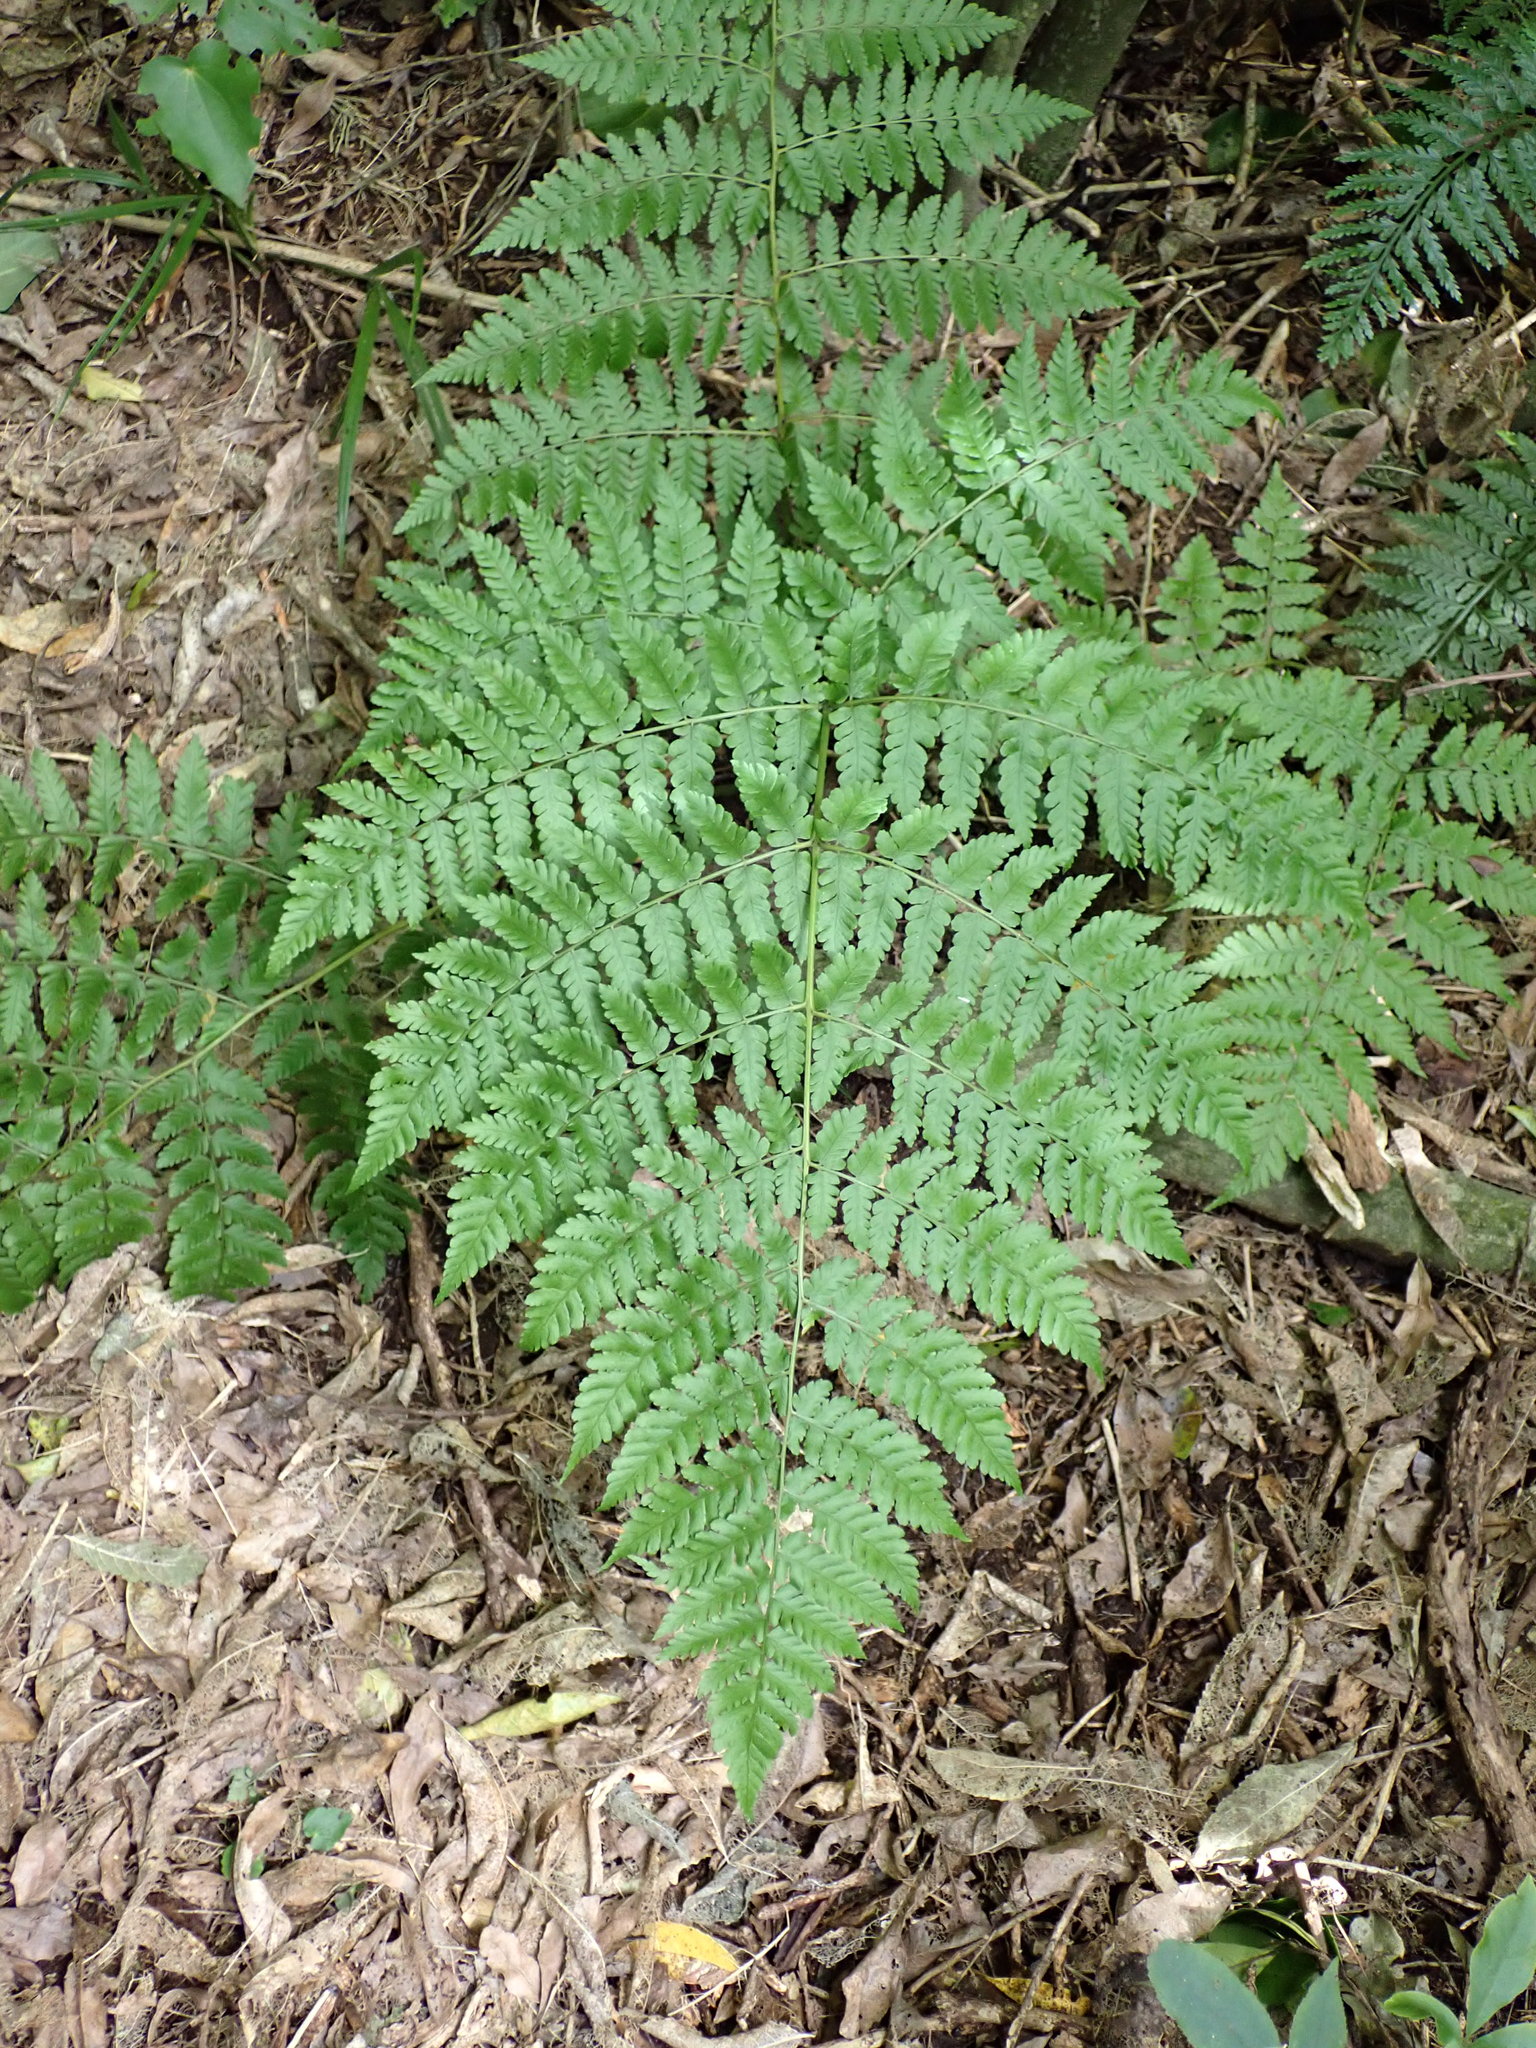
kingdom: Plantae
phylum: Tracheophyta
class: Polypodiopsida
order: Polypodiales
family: Athyriaceae
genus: Diplazium
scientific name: Diplazium australe
